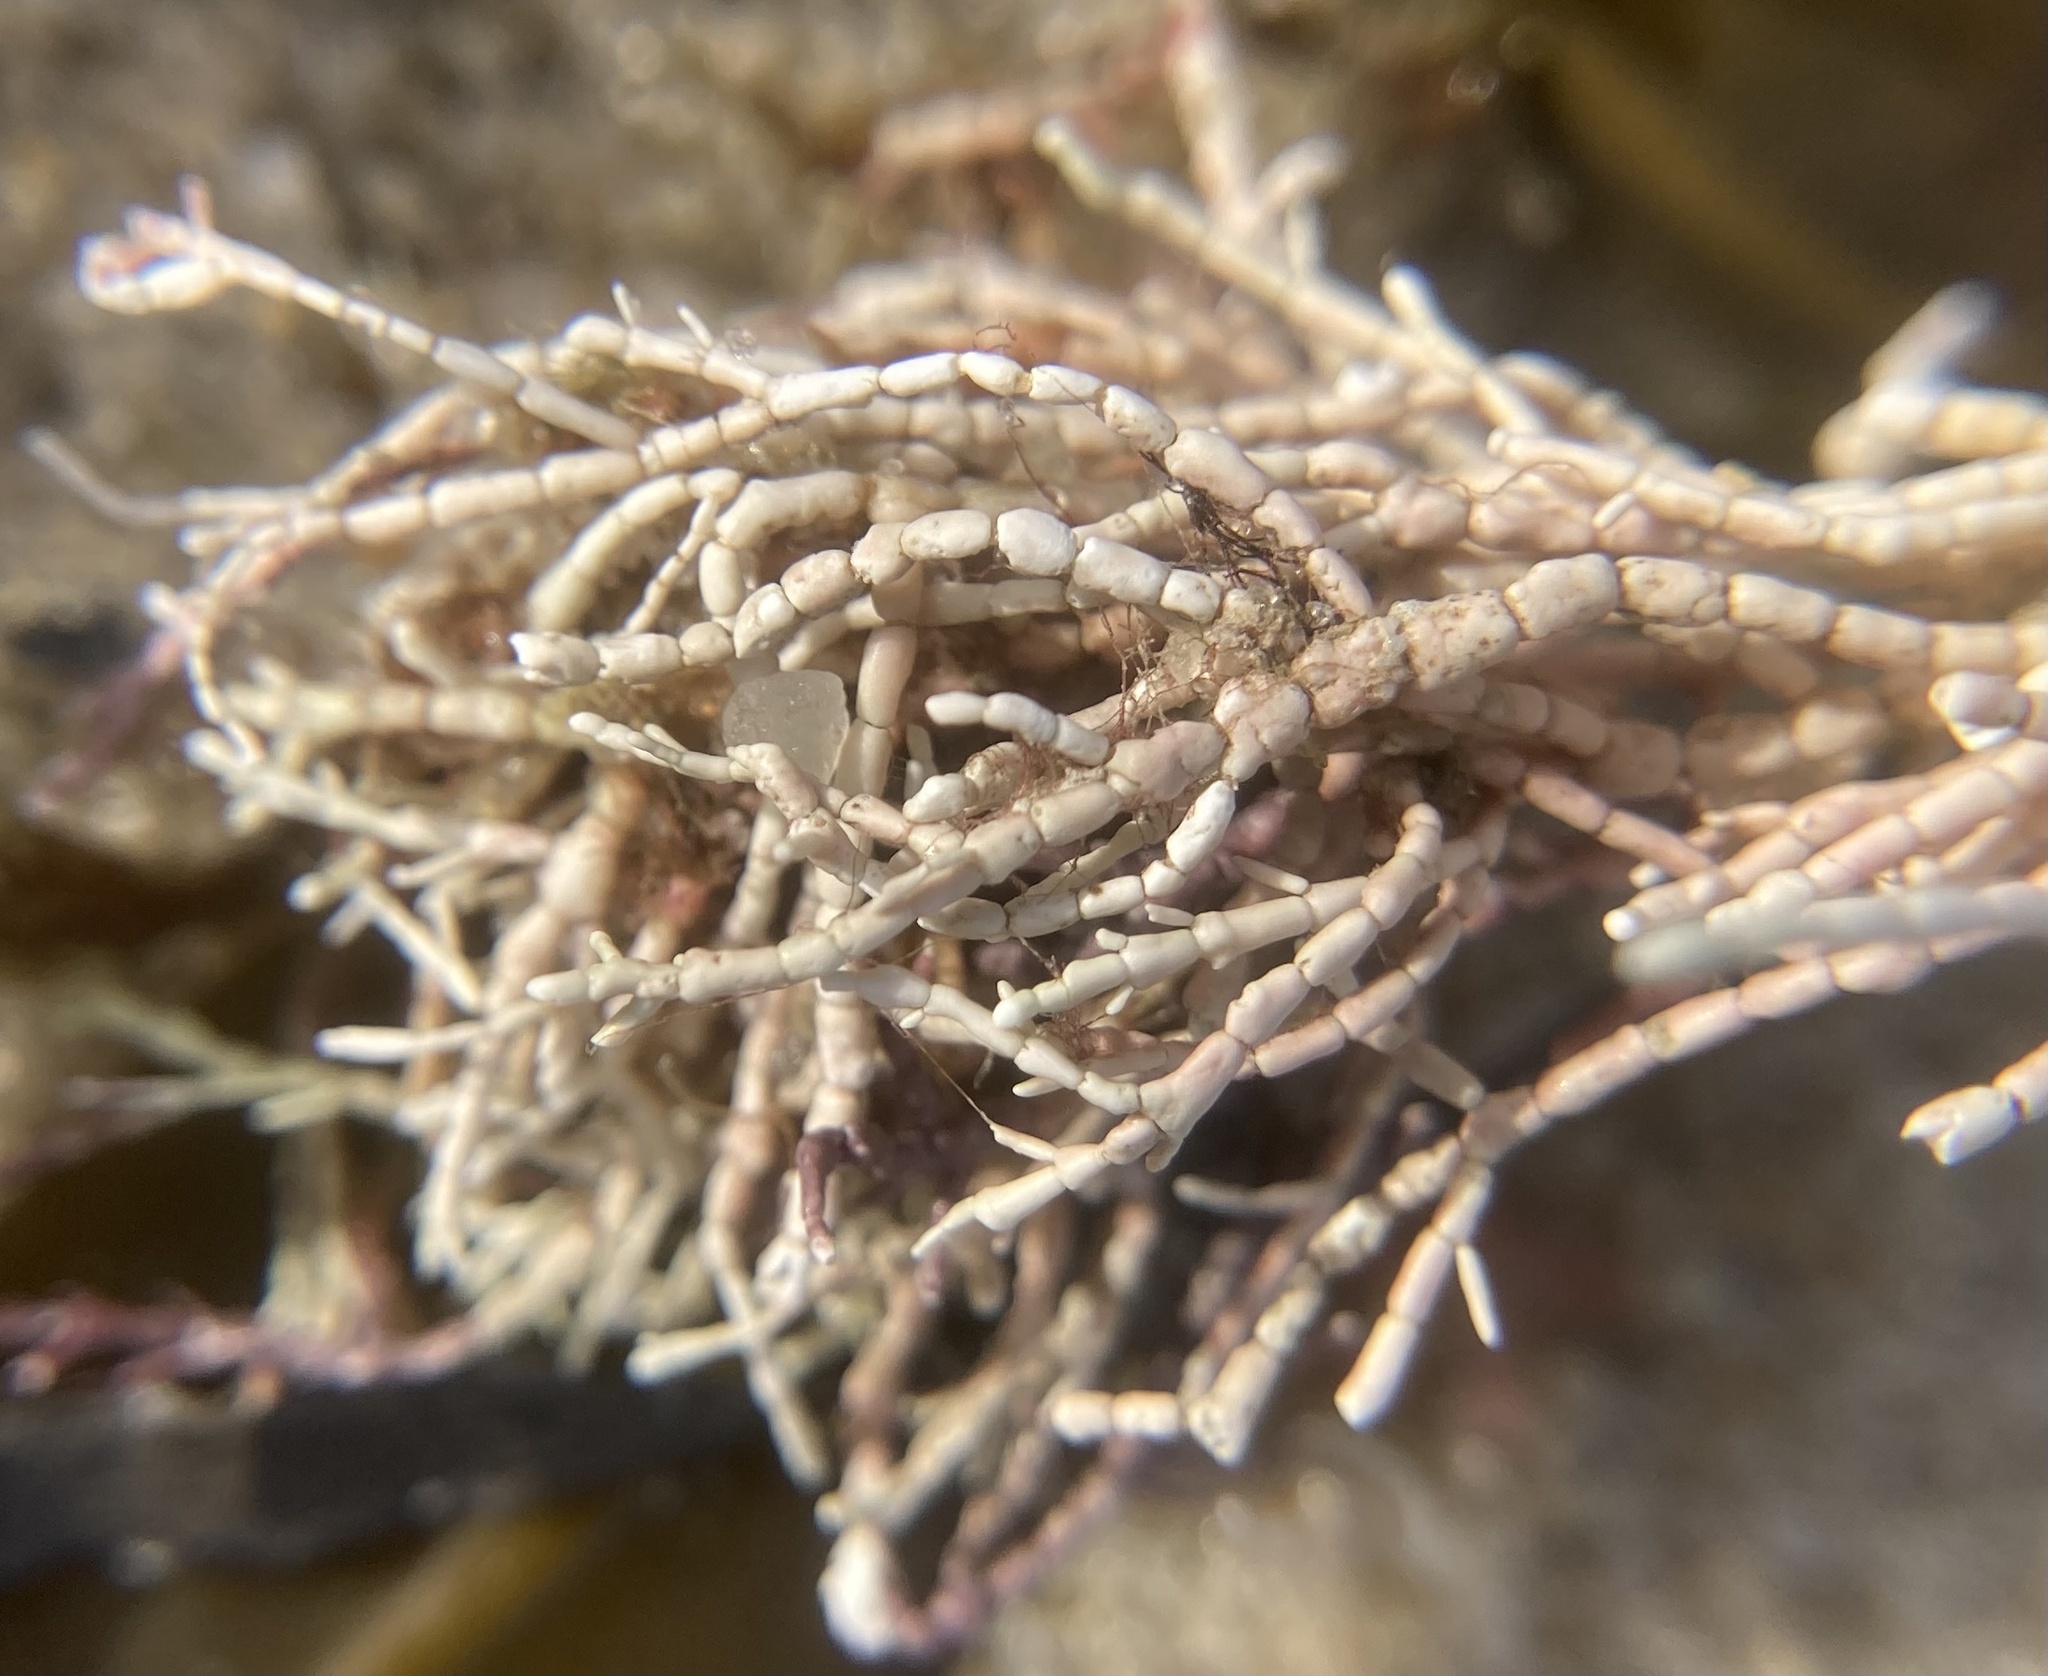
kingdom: Plantae
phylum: Rhodophyta
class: Florideophyceae
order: Corallinales
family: Corallinaceae
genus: Corallina
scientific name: Corallina officinalis
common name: Coral weed
